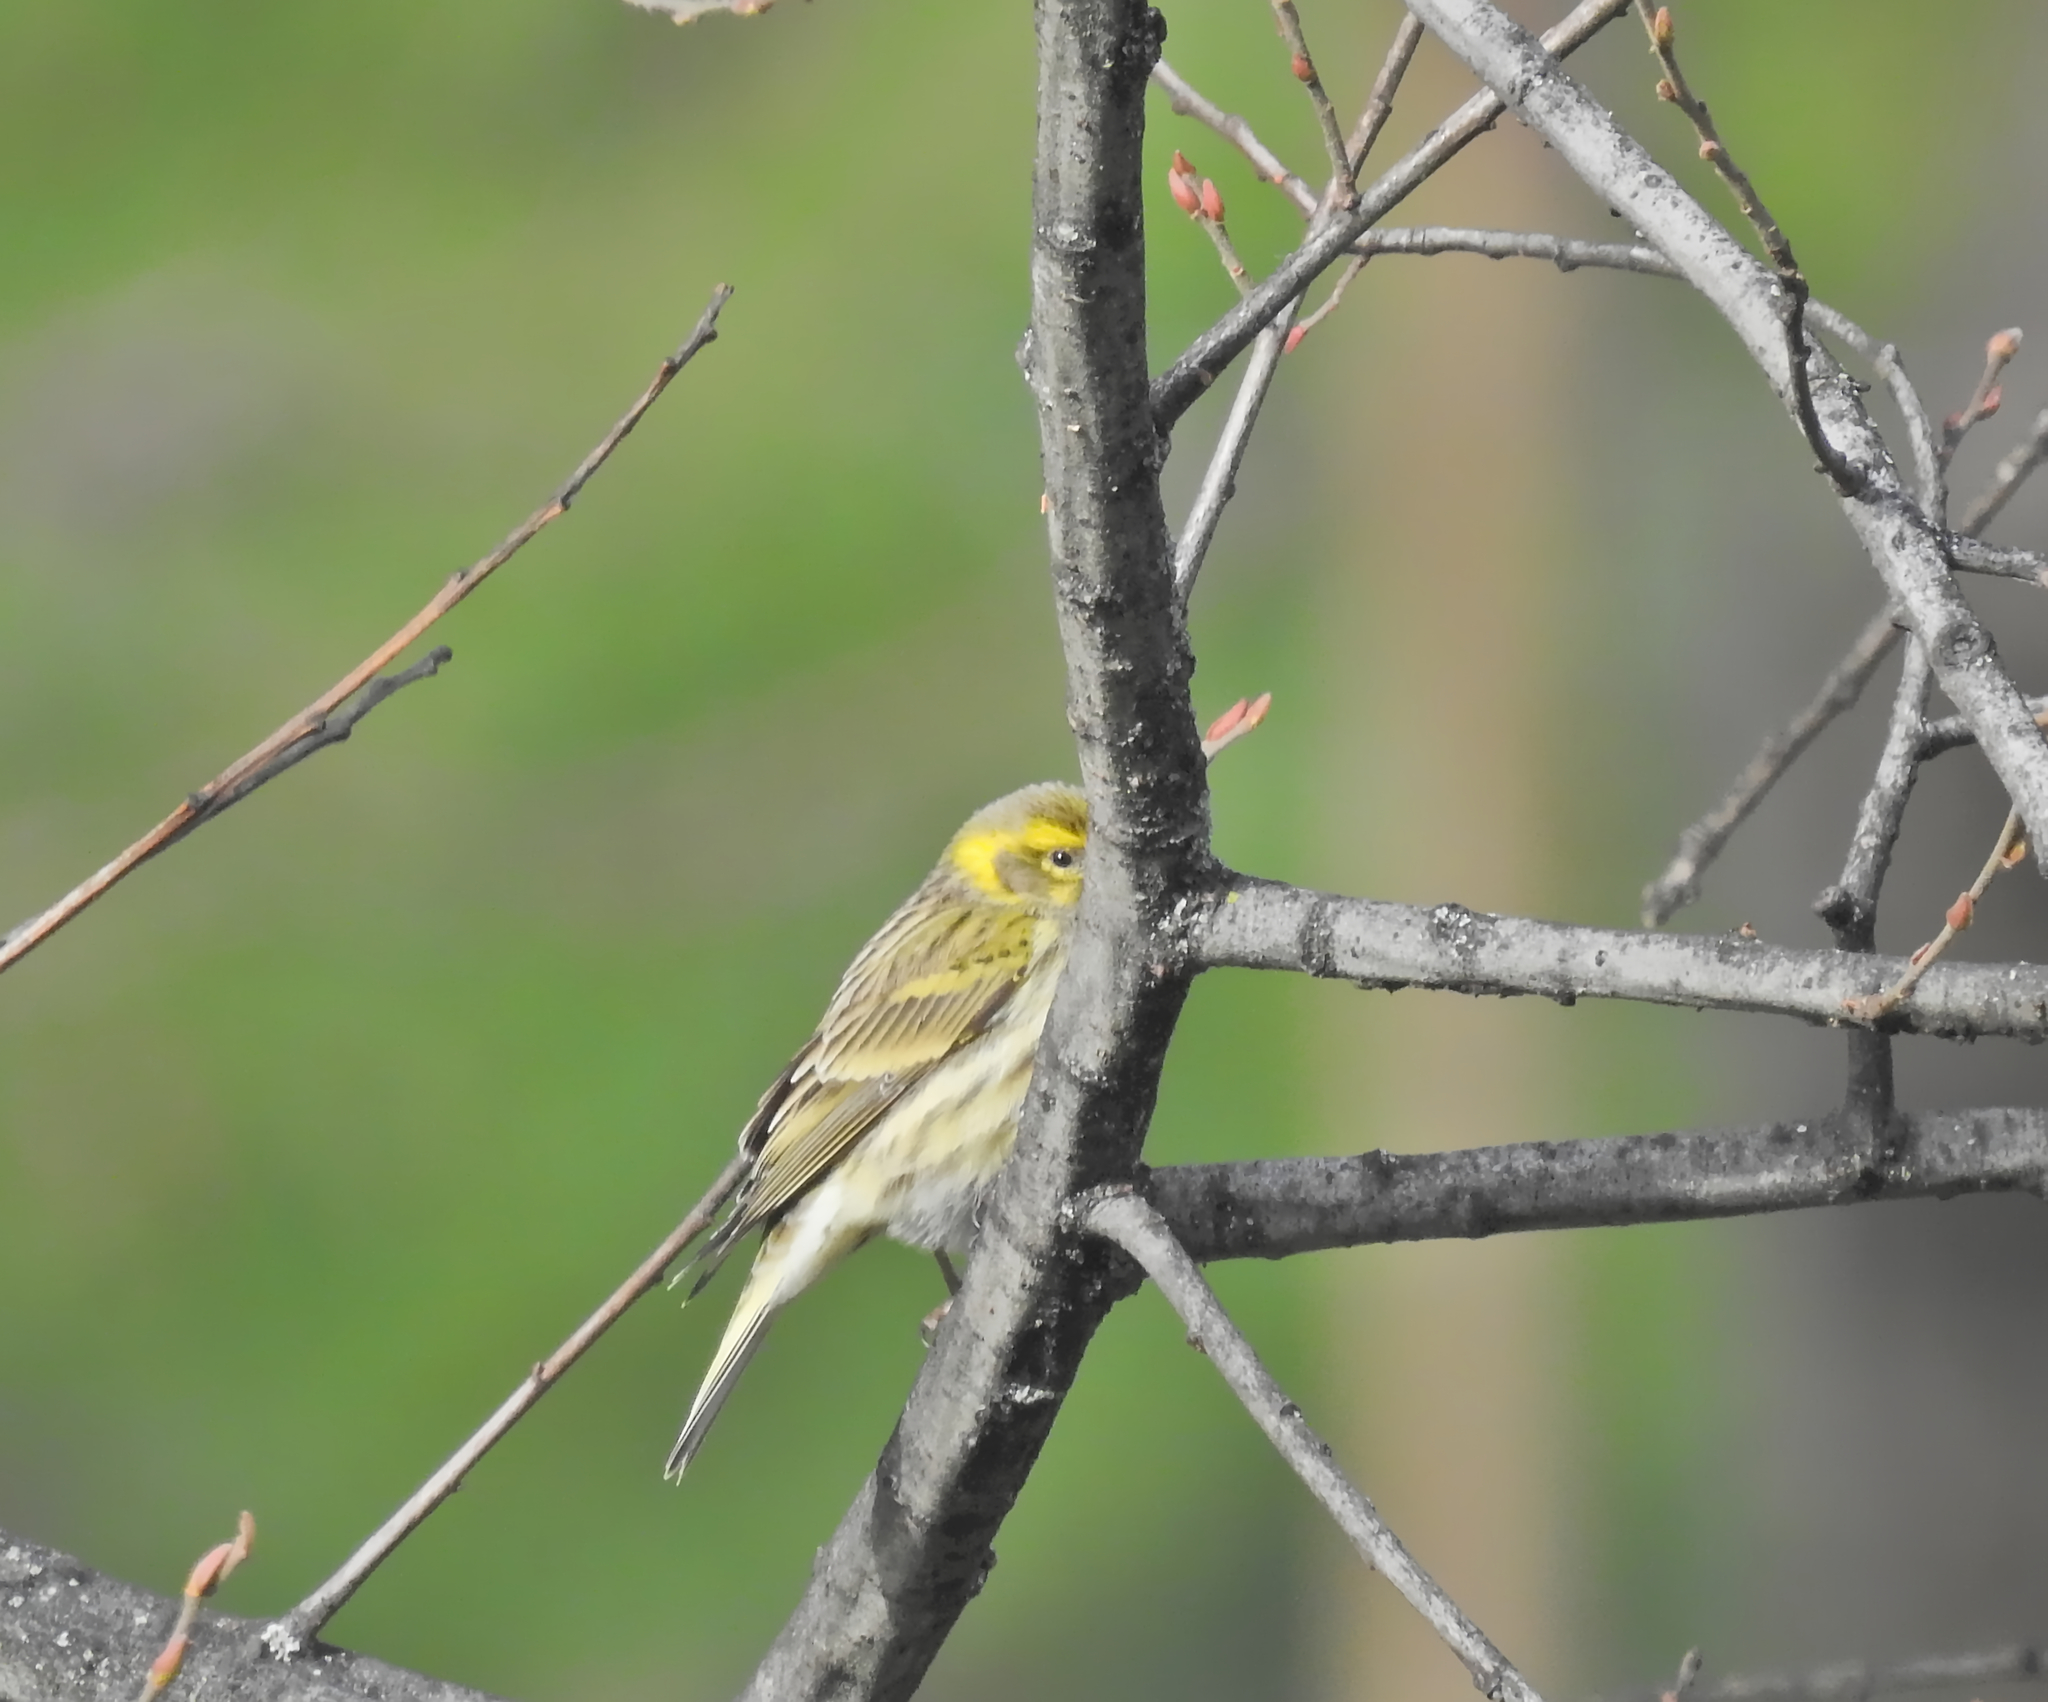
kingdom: Animalia
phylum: Chordata
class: Aves
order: Passeriformes
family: Fringillidae
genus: Serinus
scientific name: Serinus serinus
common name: European serin
